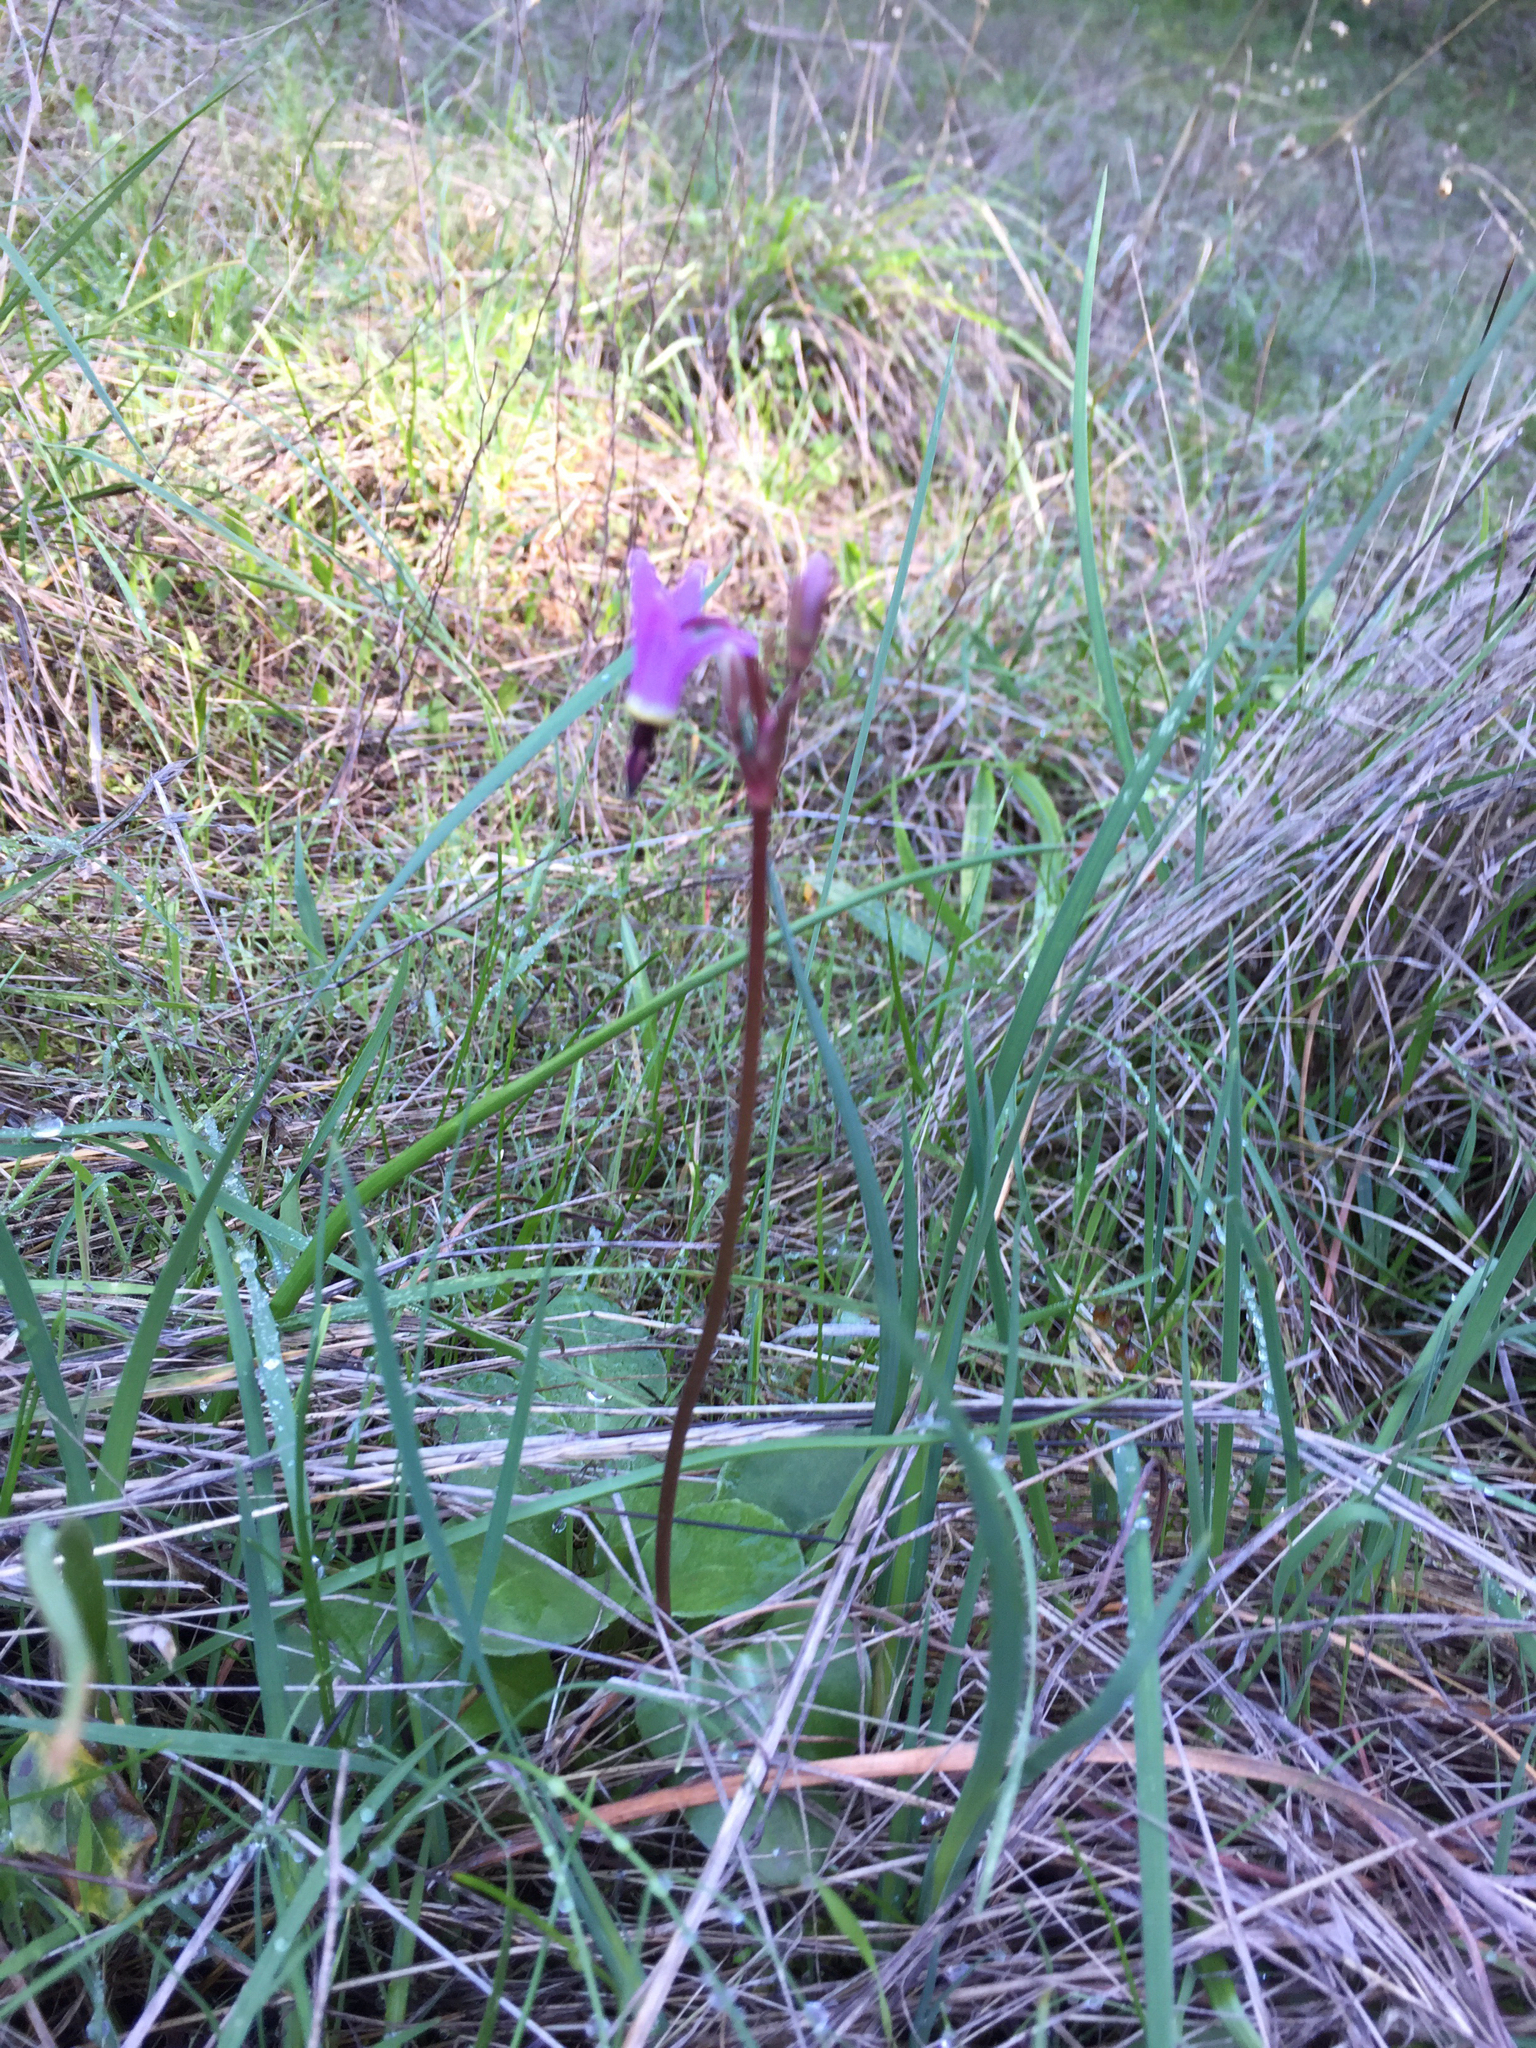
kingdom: Plantae
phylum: Tracheophyta
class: Magnoliopsida
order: Ericales
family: Primulaceae
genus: Dodecatheon
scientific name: Dodecatheon hendersonii
